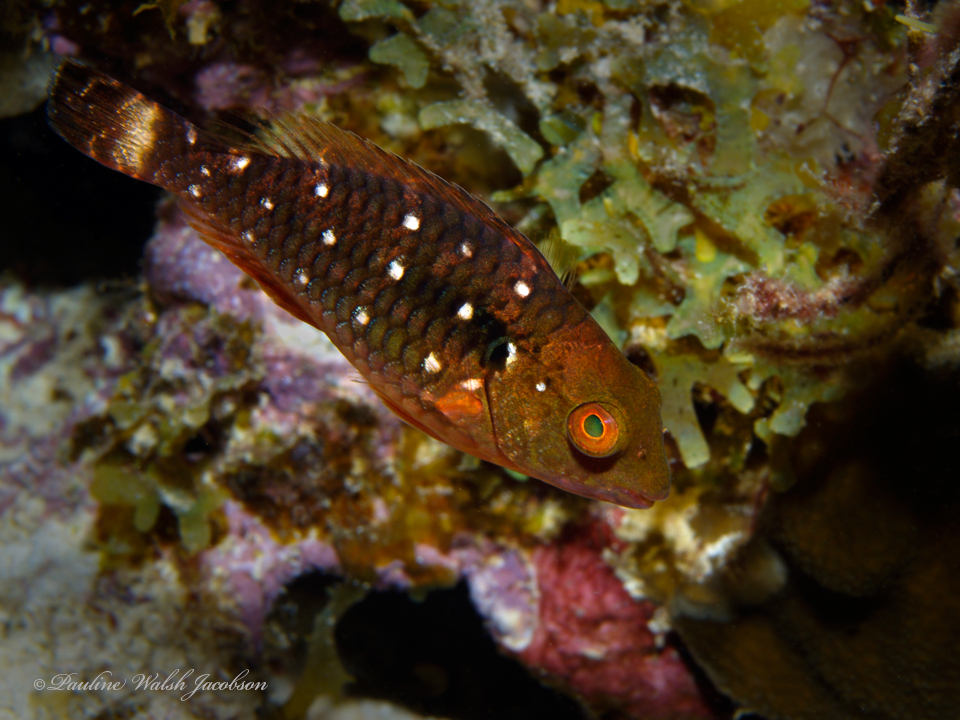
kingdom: Animalia
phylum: Chordata
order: Perciformes
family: Scaridae
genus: Sparisoma
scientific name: Sparisoma viride
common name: Stoplight parrotfish
